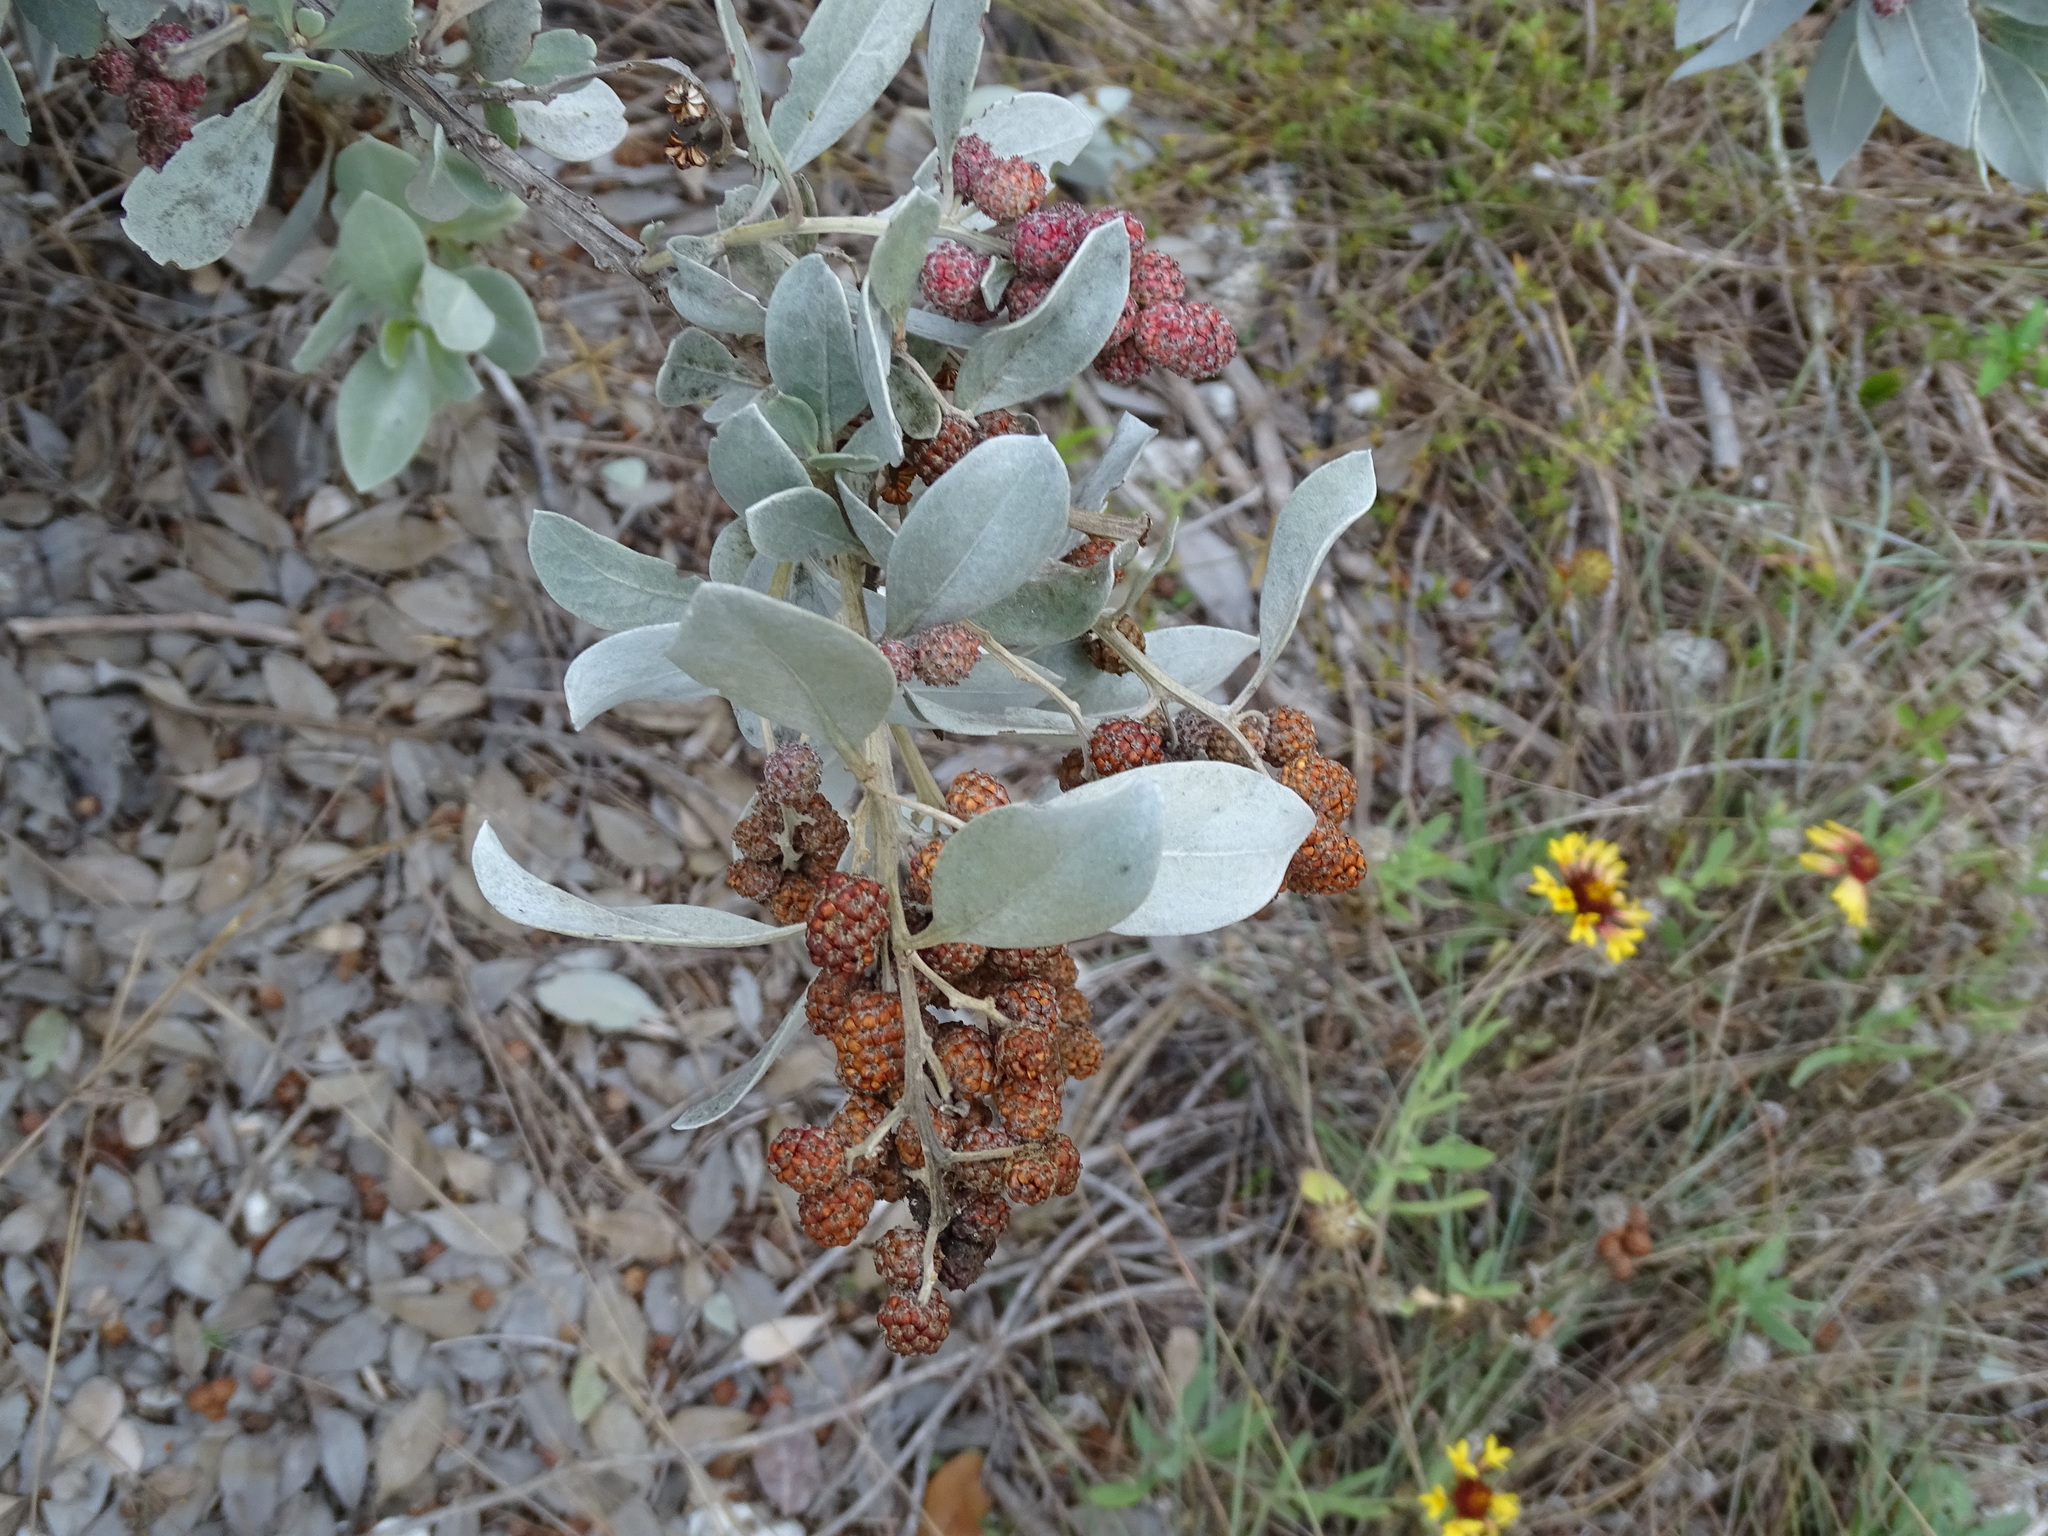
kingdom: Plantae
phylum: Tracheophyta
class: Magnoliopsida
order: Myrtales
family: Combretaceae
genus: Conocarpus
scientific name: Conocarpus erectus
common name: Button mangrove
